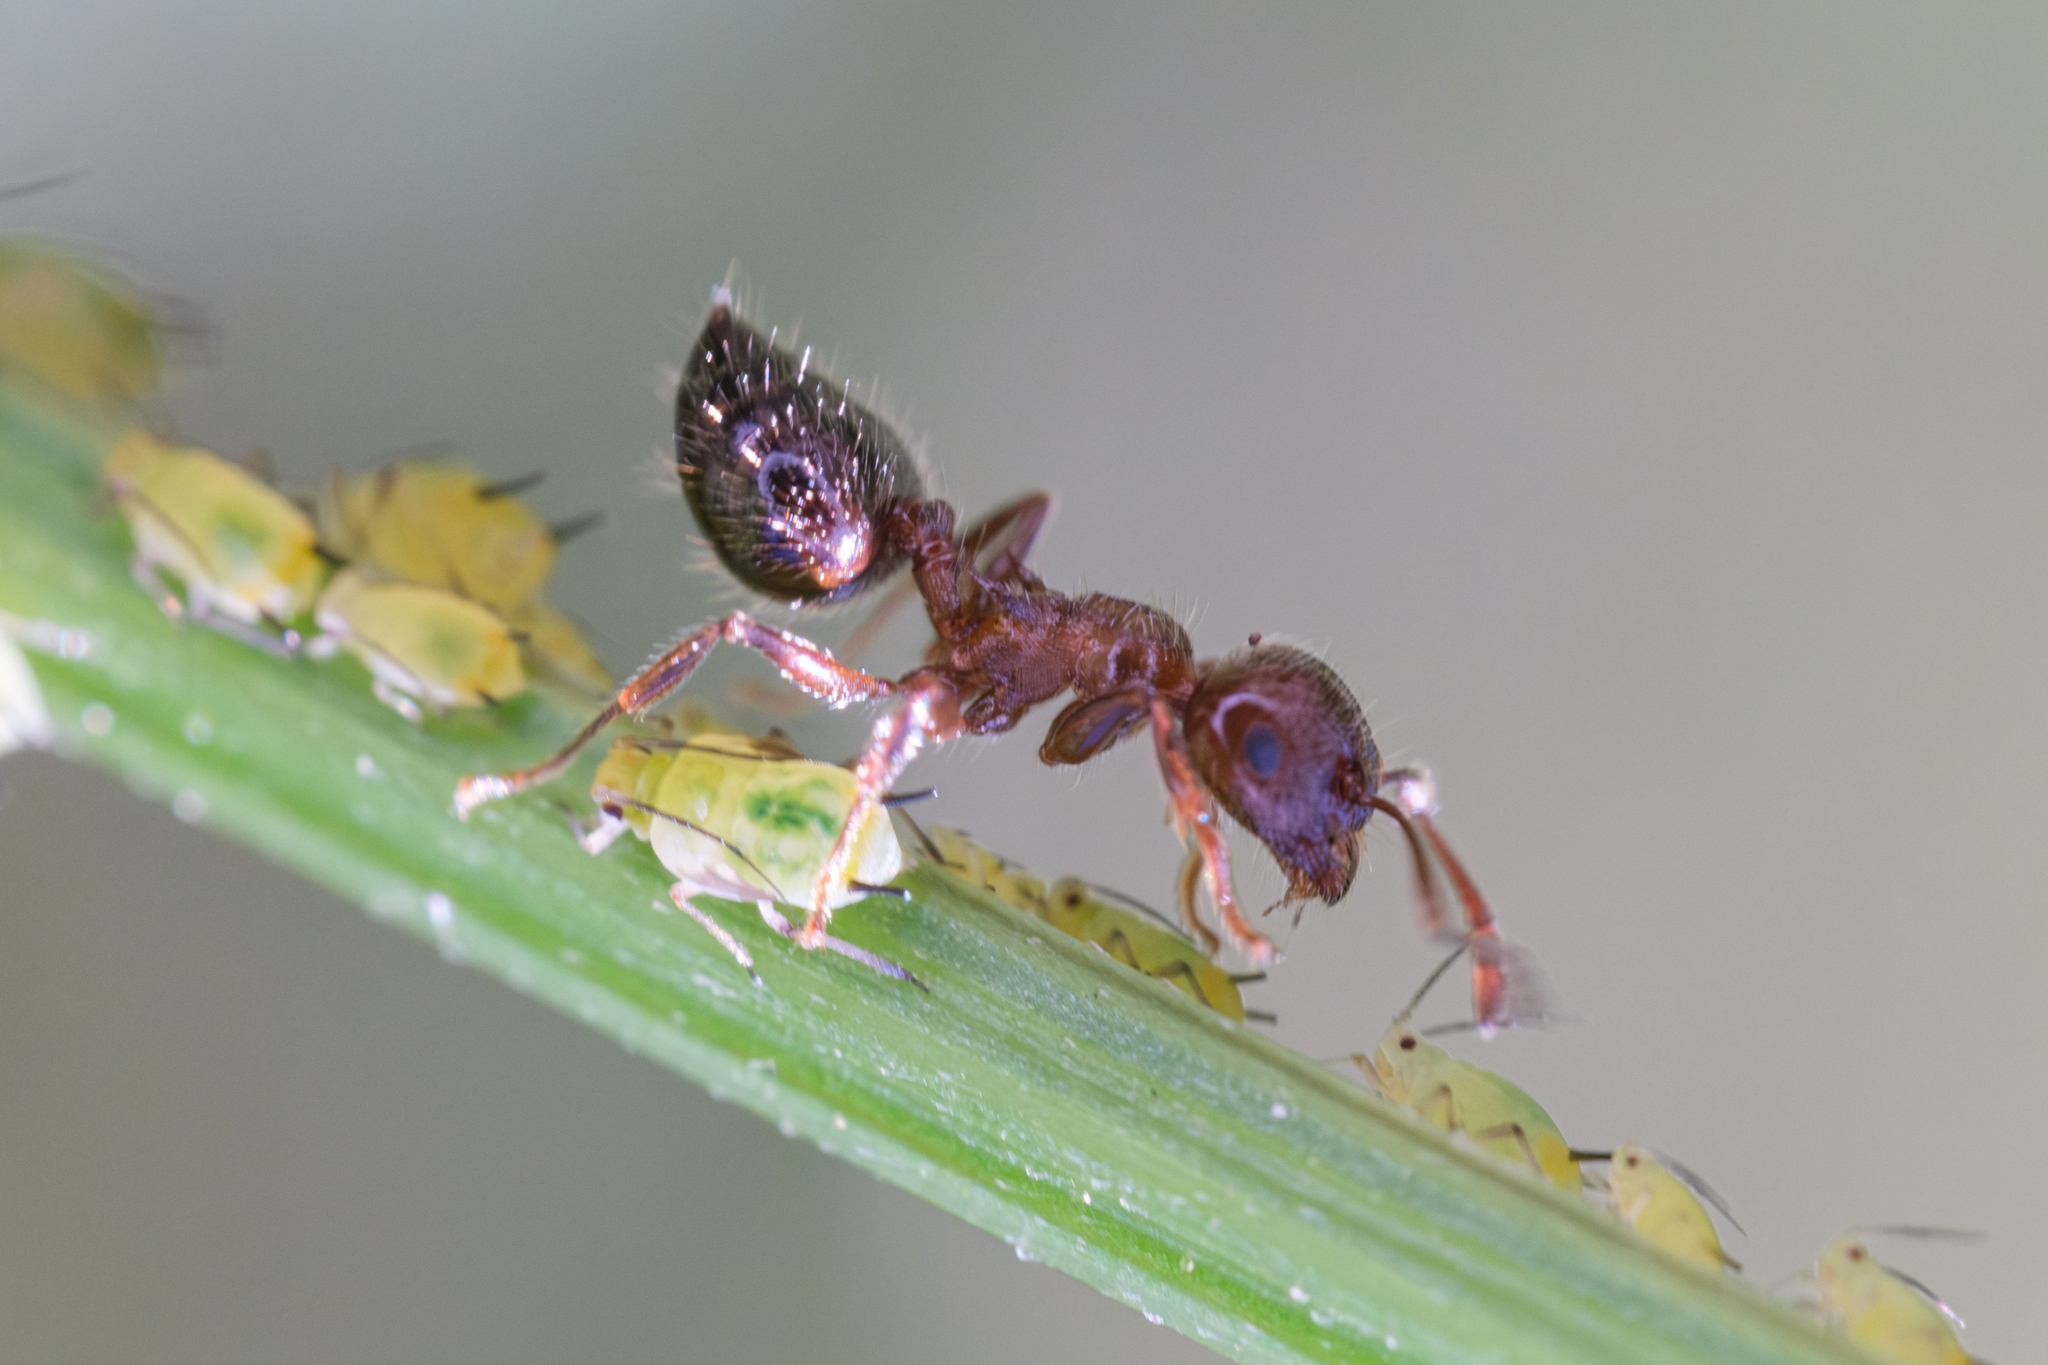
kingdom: Animalia
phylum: Arthropoda
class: Insecta
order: Hymenoptera
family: Formicidae
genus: Crematogaster
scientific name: Crematogaster pilosa
